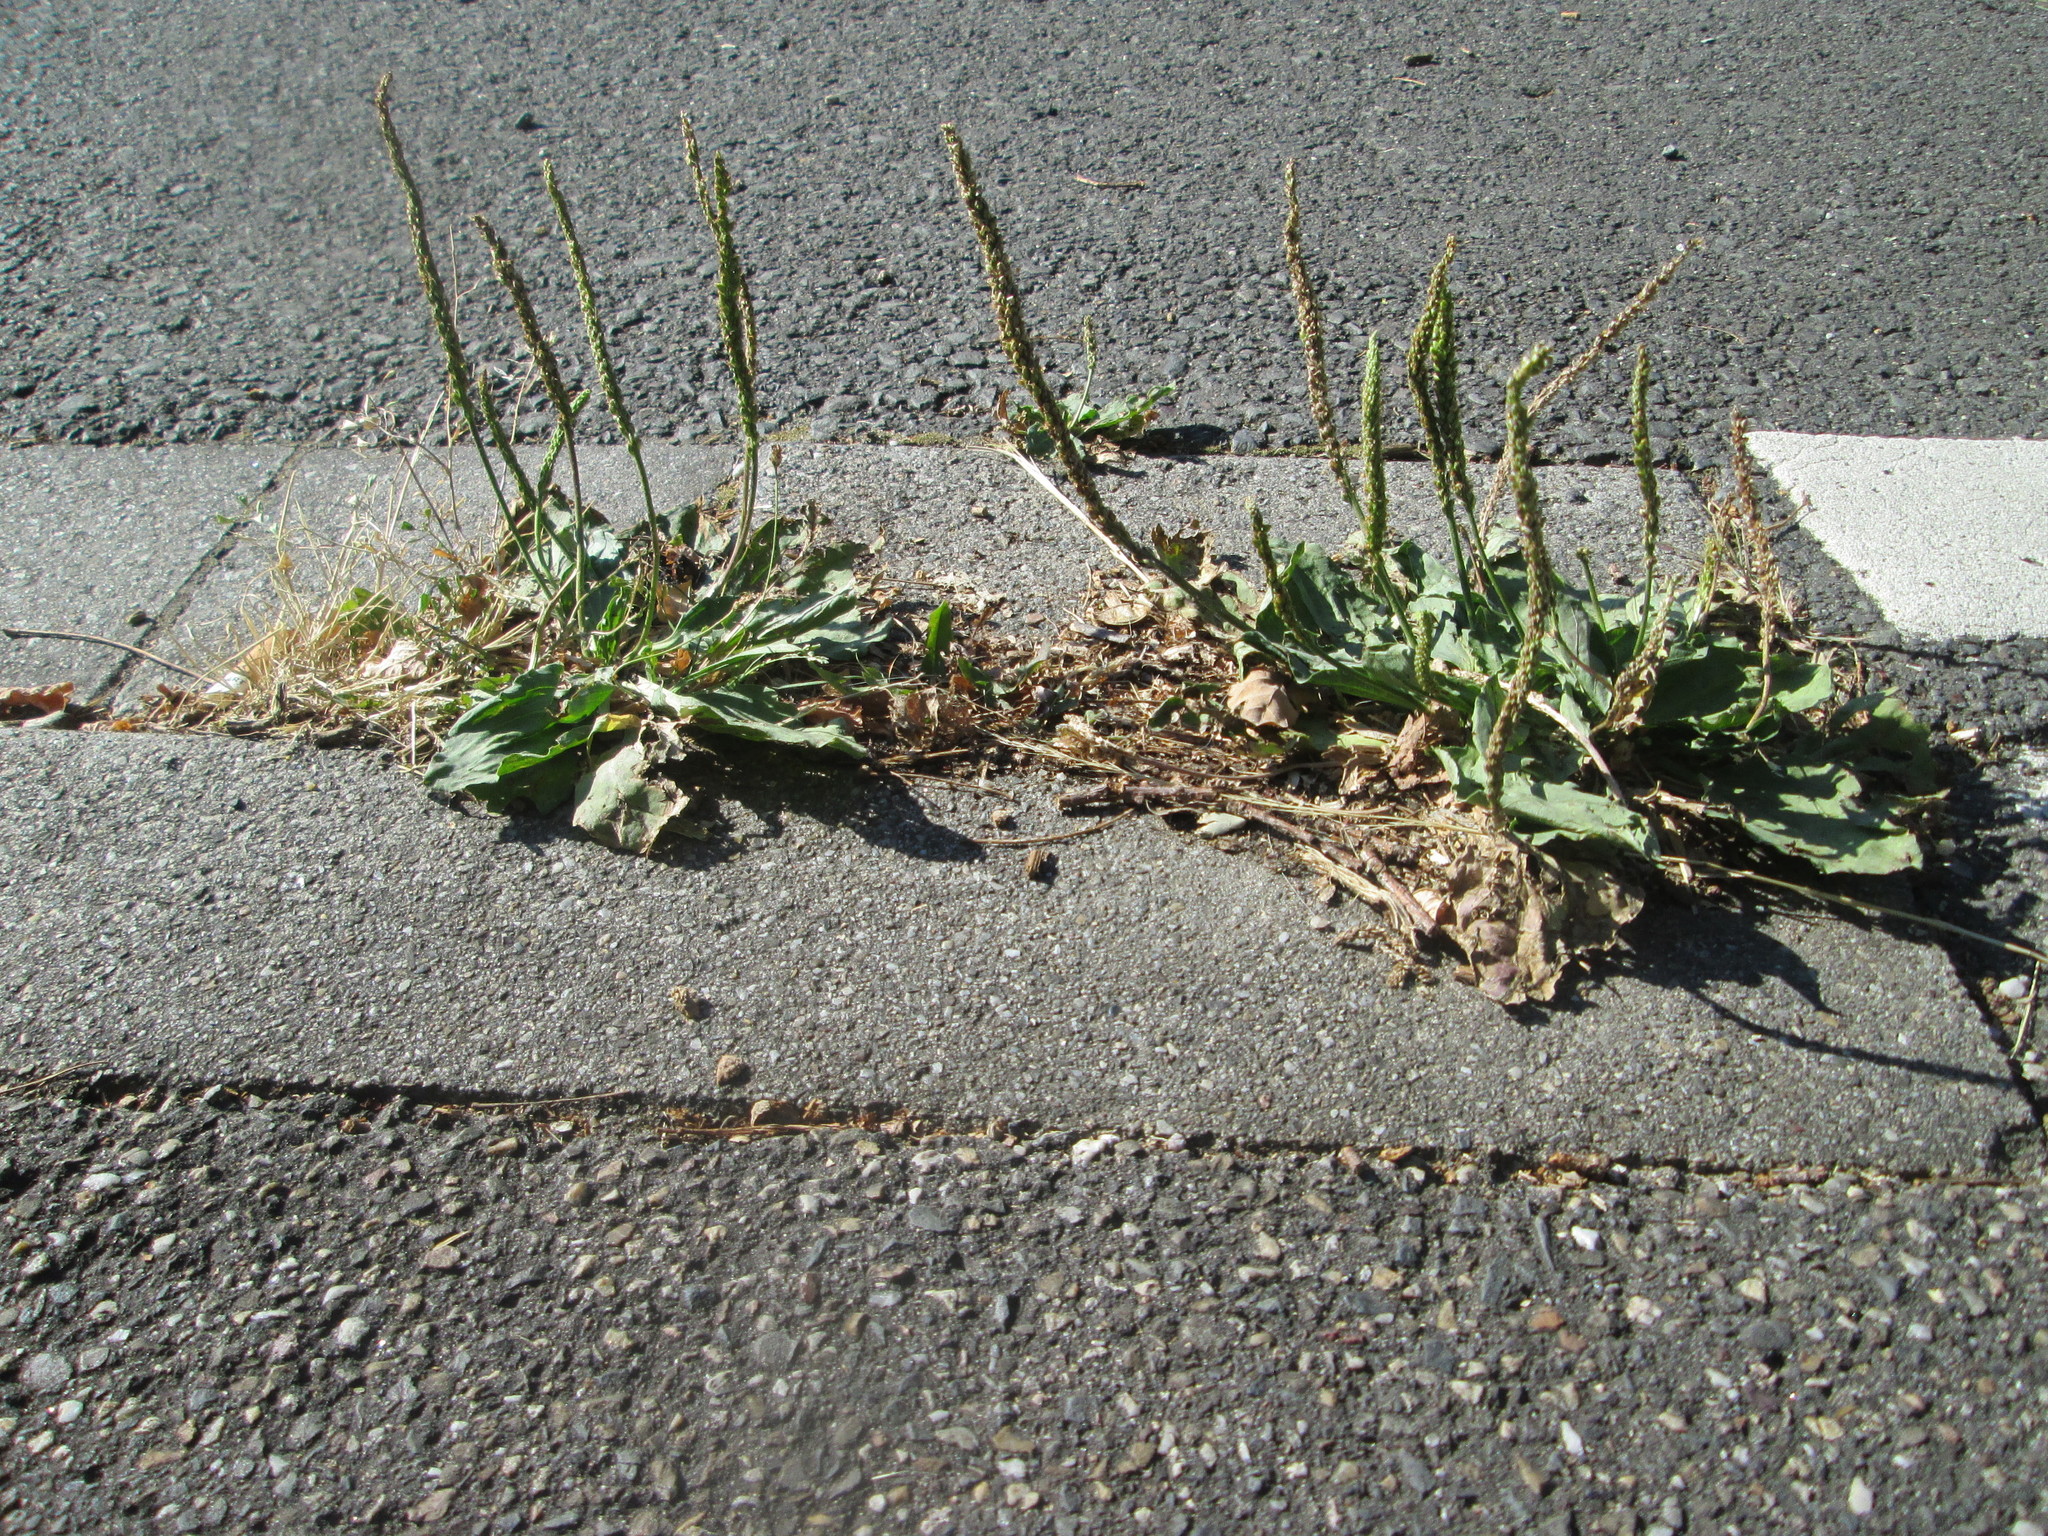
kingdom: Plantae
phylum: Tracheophyta
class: Magnoliopsida
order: Lamiales
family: Plantaginaceae
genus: Plantago
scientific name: Plantago major
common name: Common plantain
